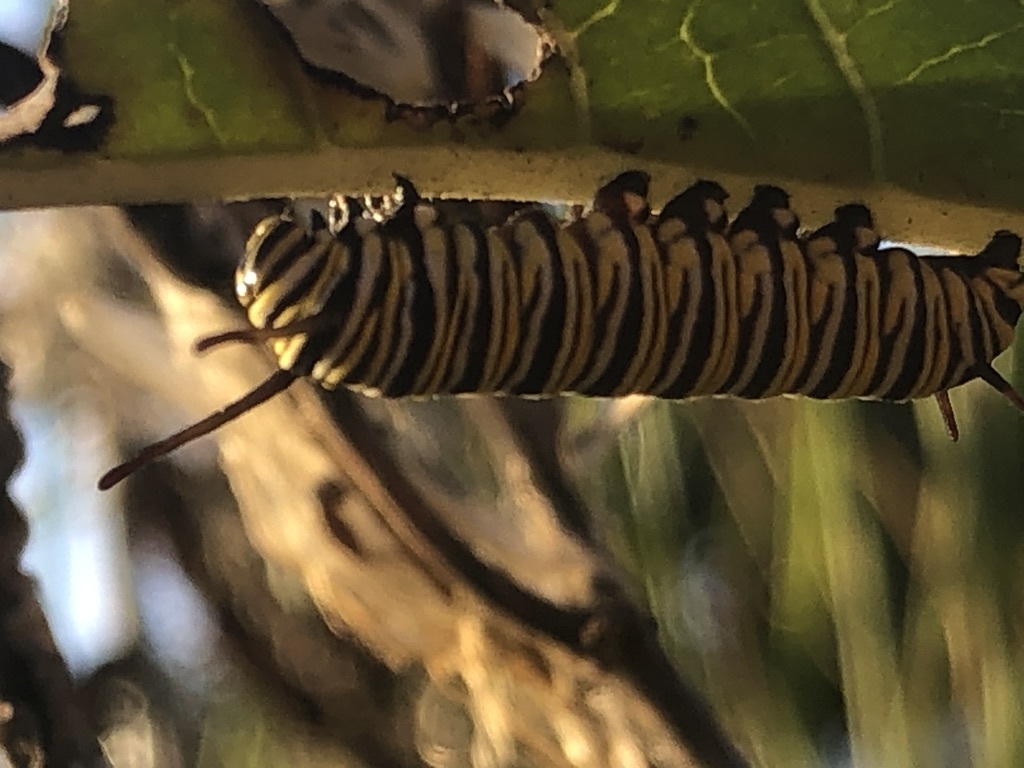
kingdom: Animalia
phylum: Arthropoda
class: Insecta
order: Lepidoptera
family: Nymphalidae
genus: Danaus
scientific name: Danaus plexippus
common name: Monarch
